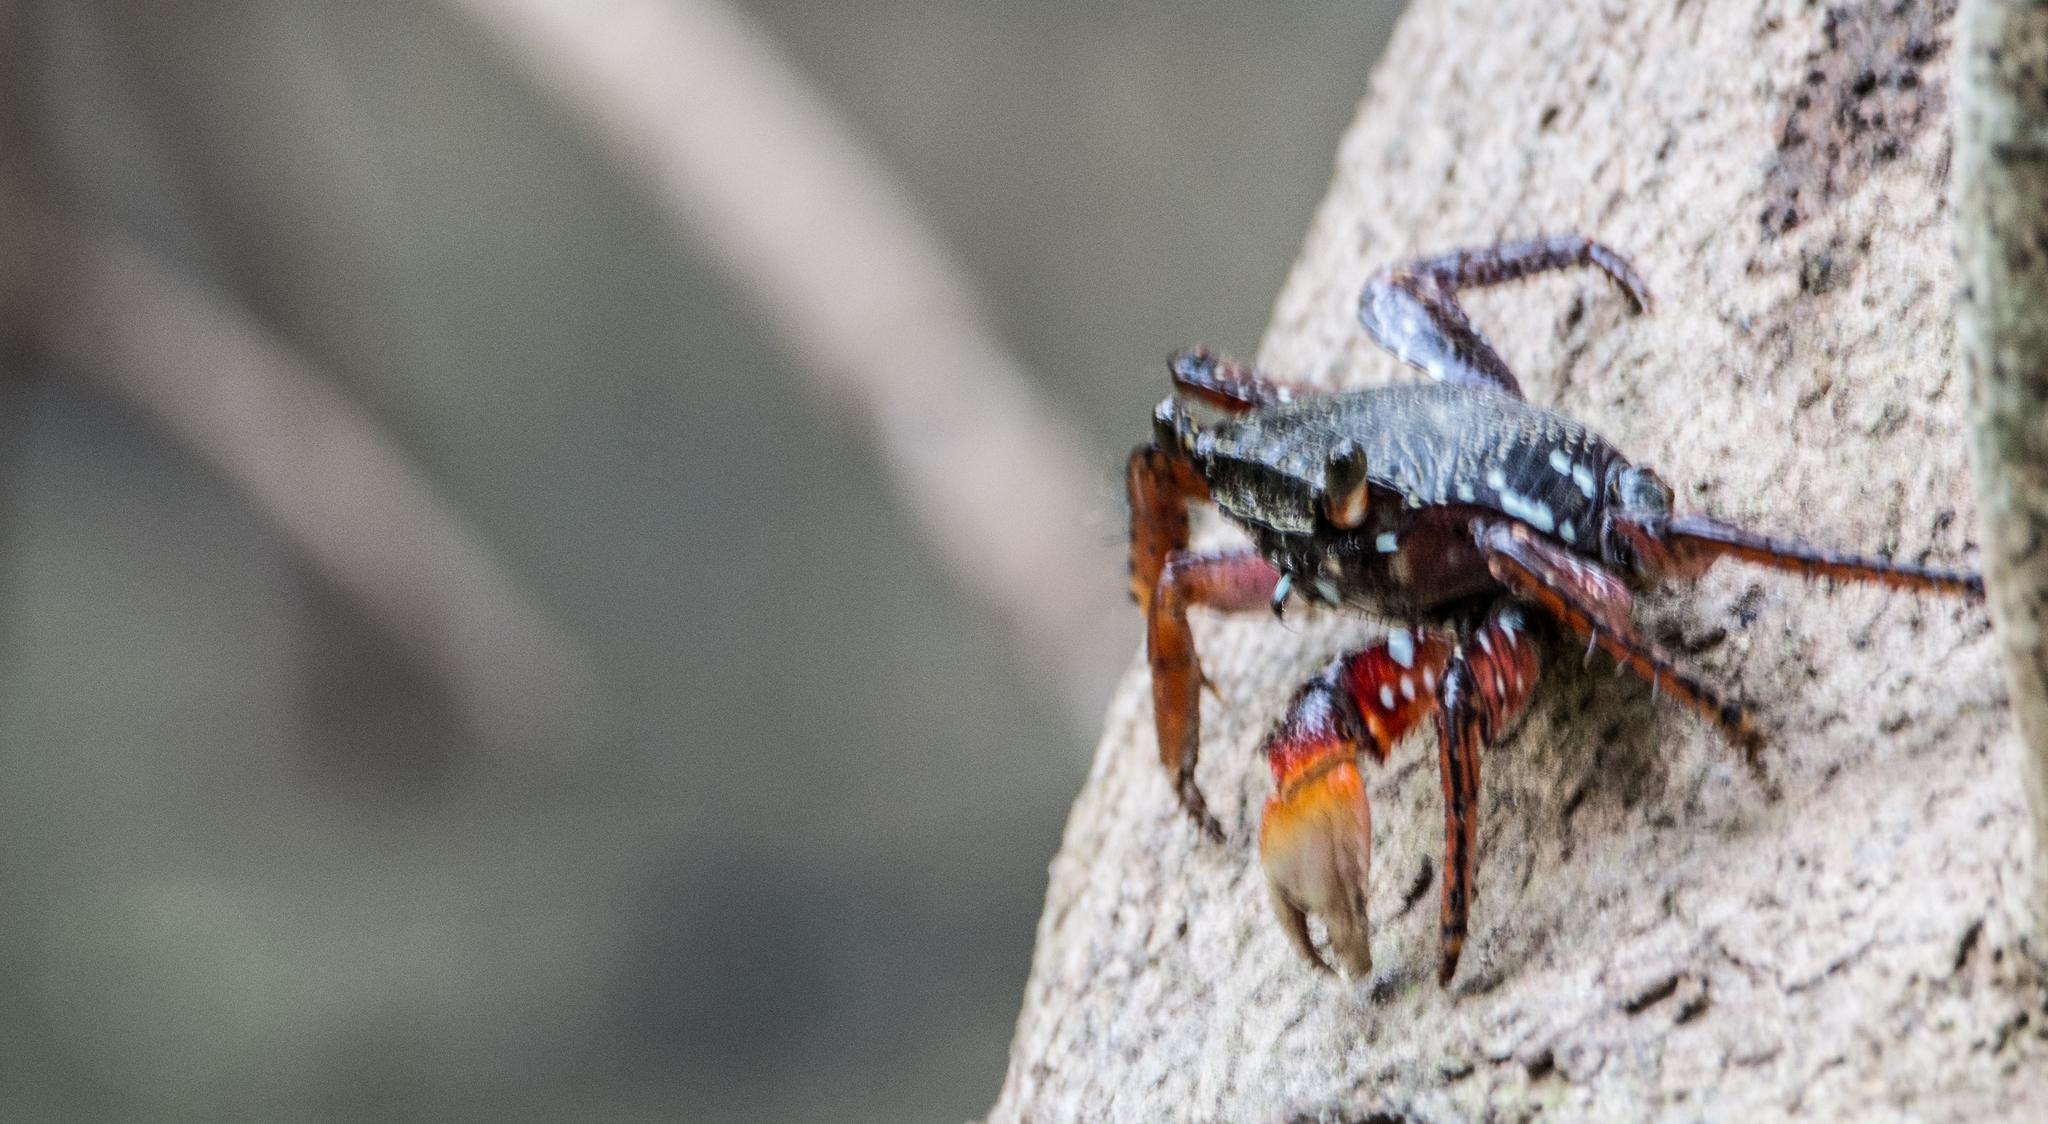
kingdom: Animalia
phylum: Arthropoda
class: Malacostraca
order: Decapoda
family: Grapsidae
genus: Goniopsis
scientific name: Goniopsis cruentata
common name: Mangrove crab
